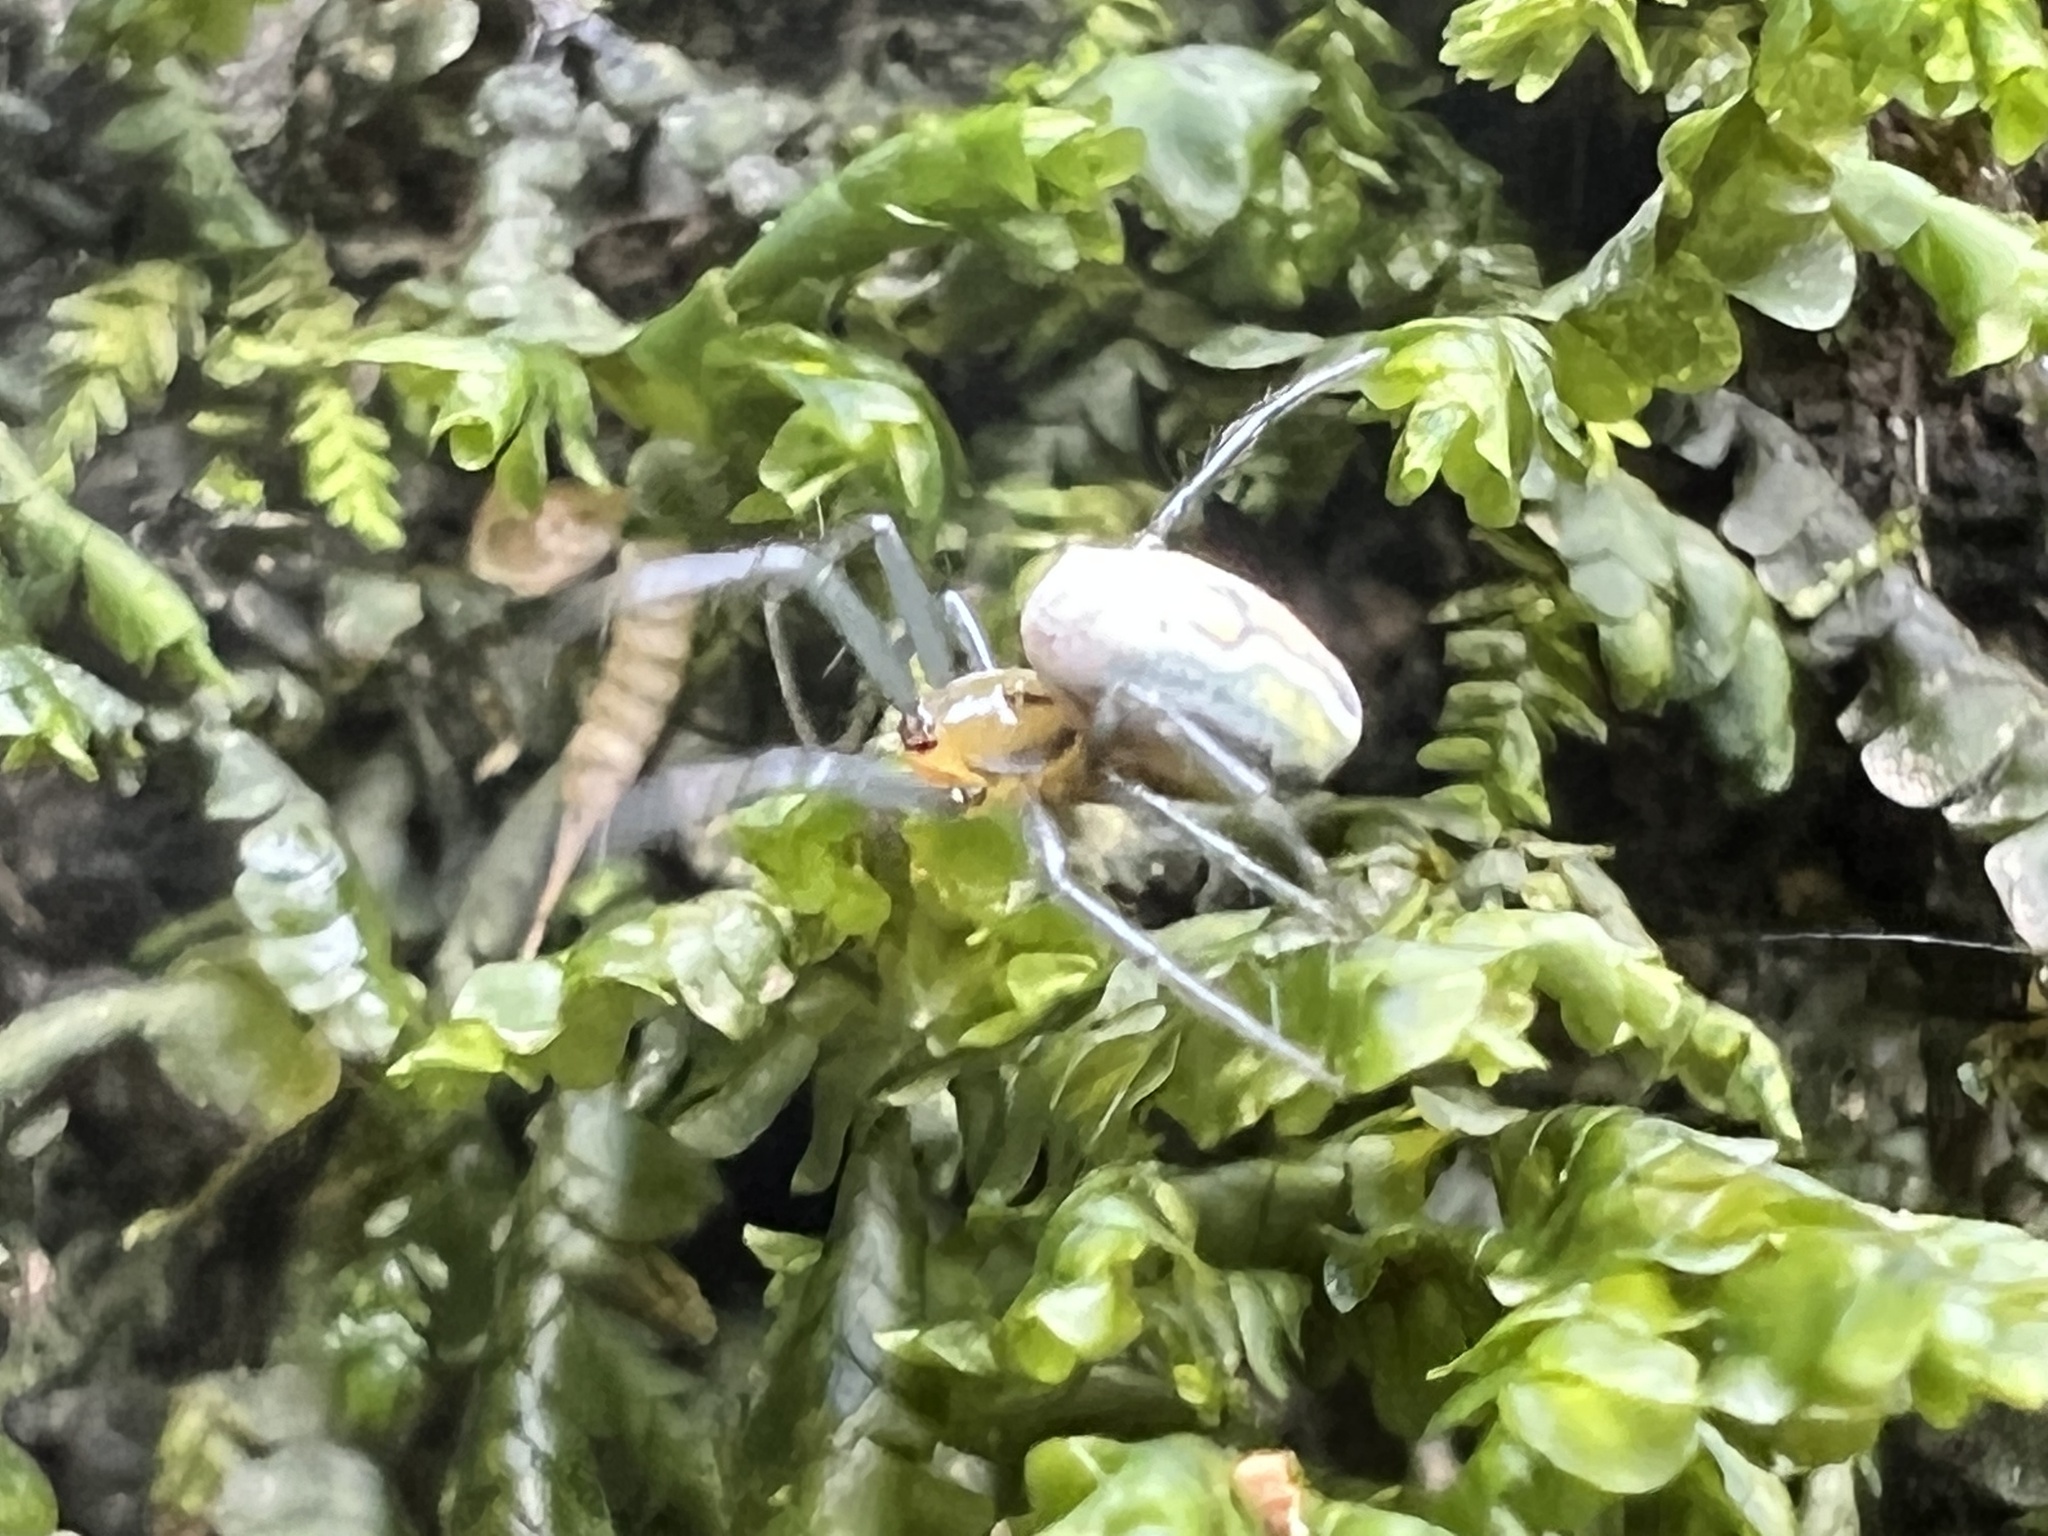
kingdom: Animalia
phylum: Arthropoda
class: Arachnida
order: Araneae
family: Araneidae
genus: Mecynogea
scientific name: Mecynogea lemniscata
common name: Orb weavers
